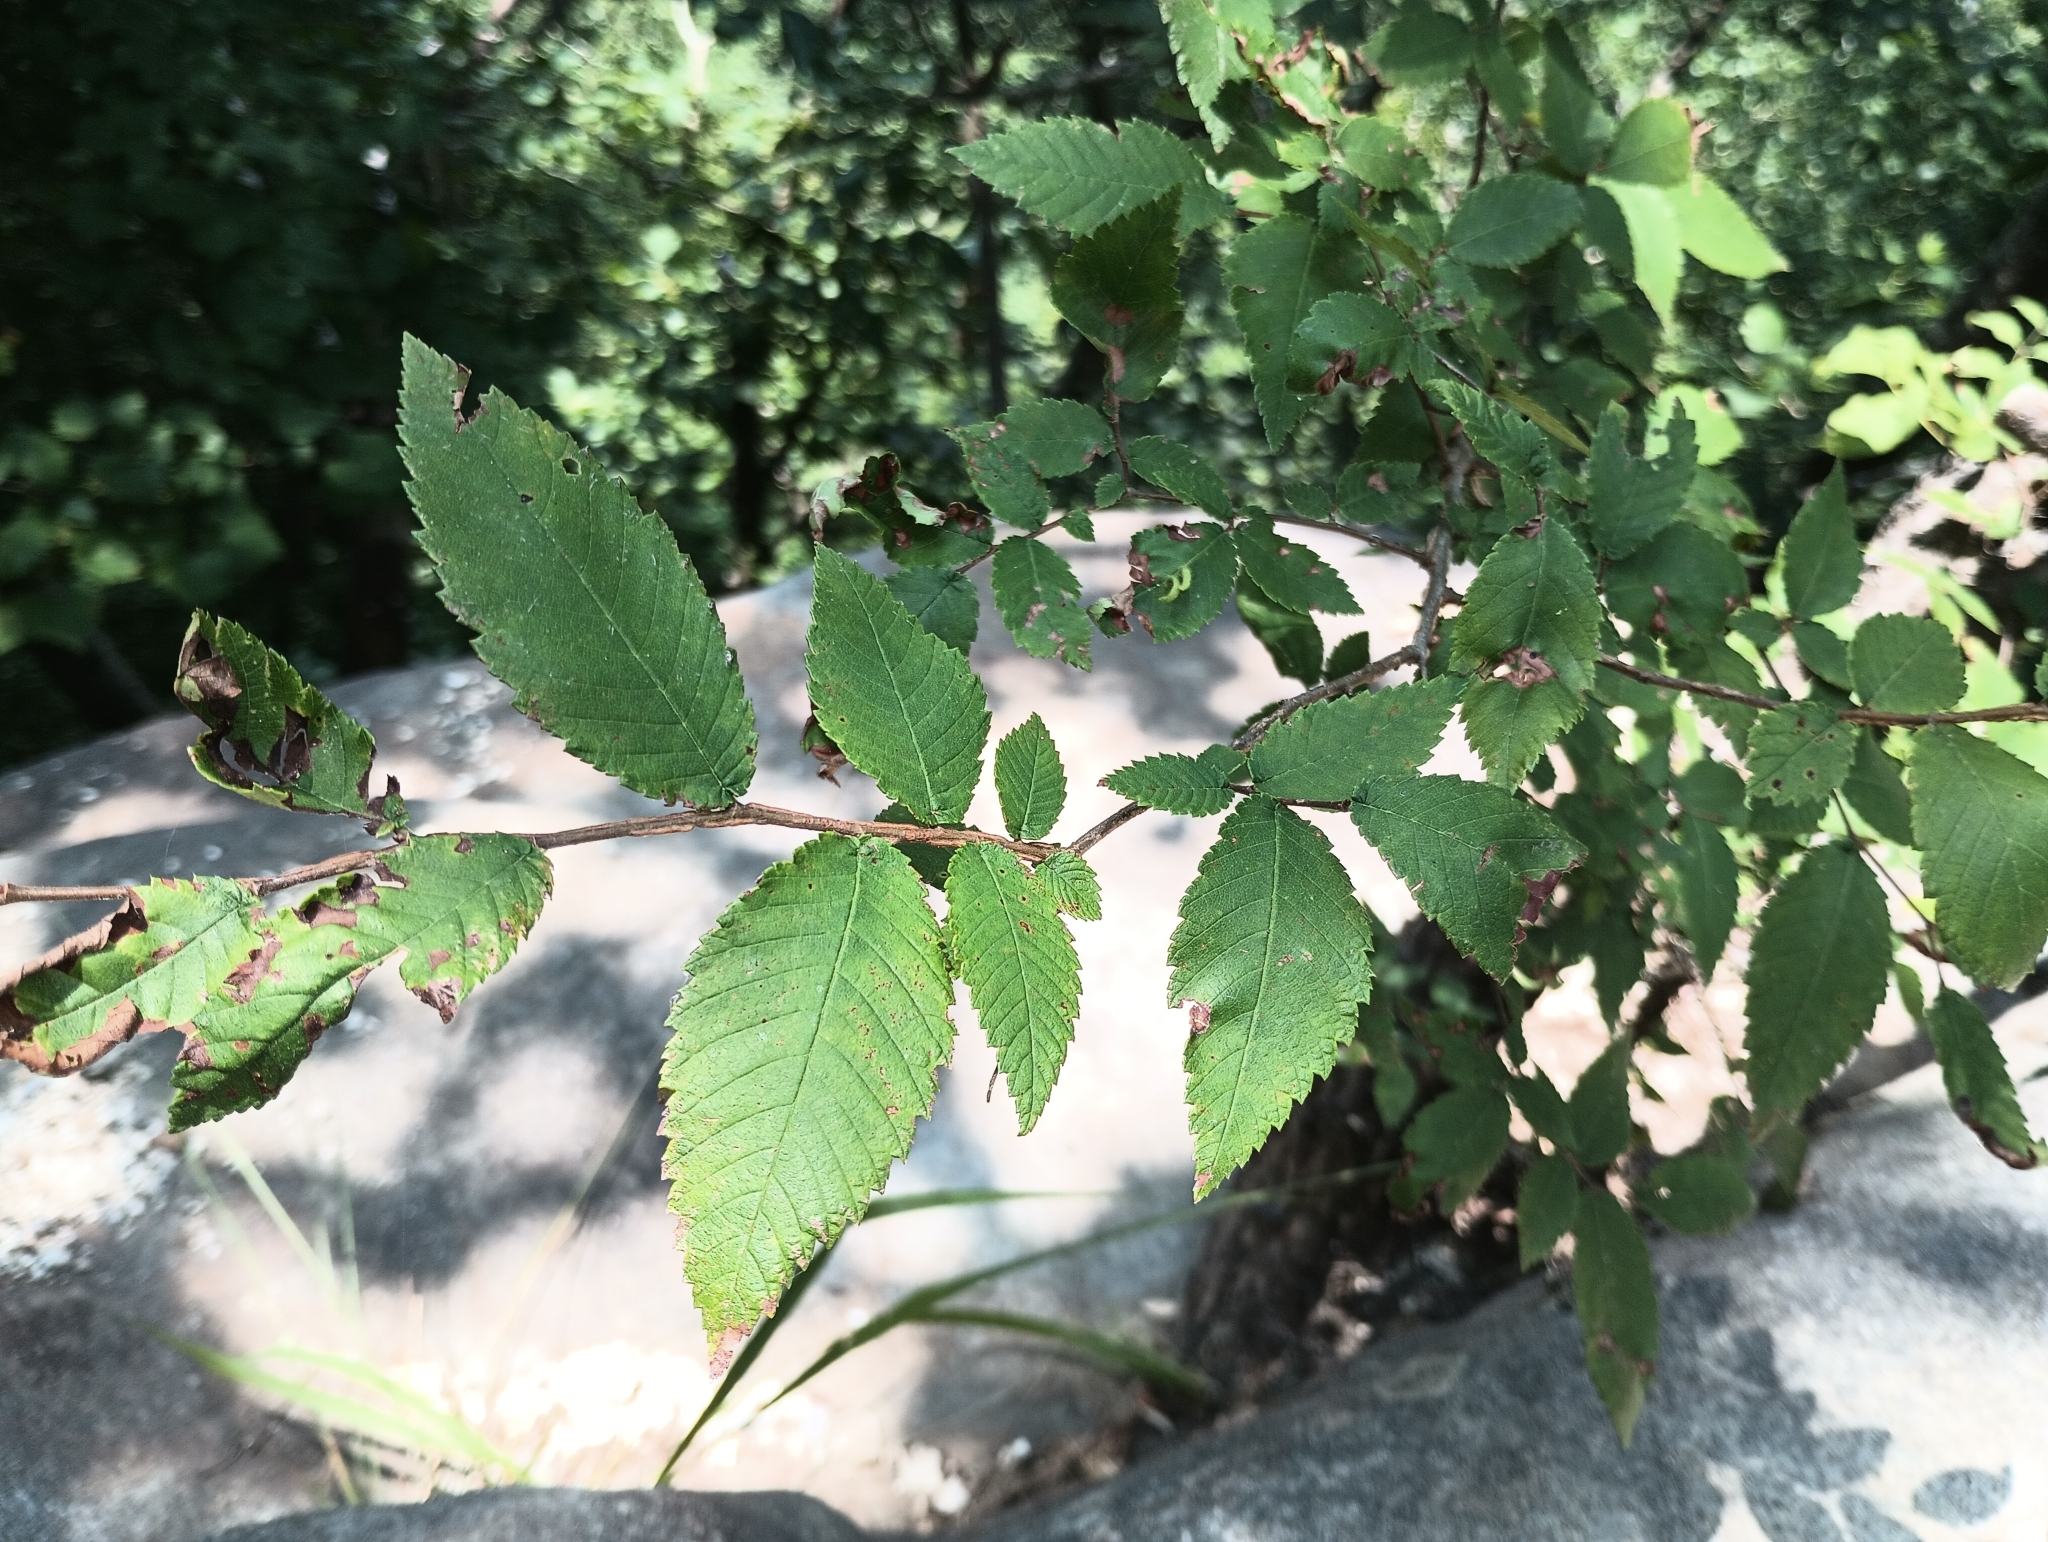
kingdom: Plantae
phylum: Tracheophyta
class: Magnoliopsida
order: Rosales
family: Ulmaceae
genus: Ulmus
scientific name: Ulmus alata
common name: Winged elm
